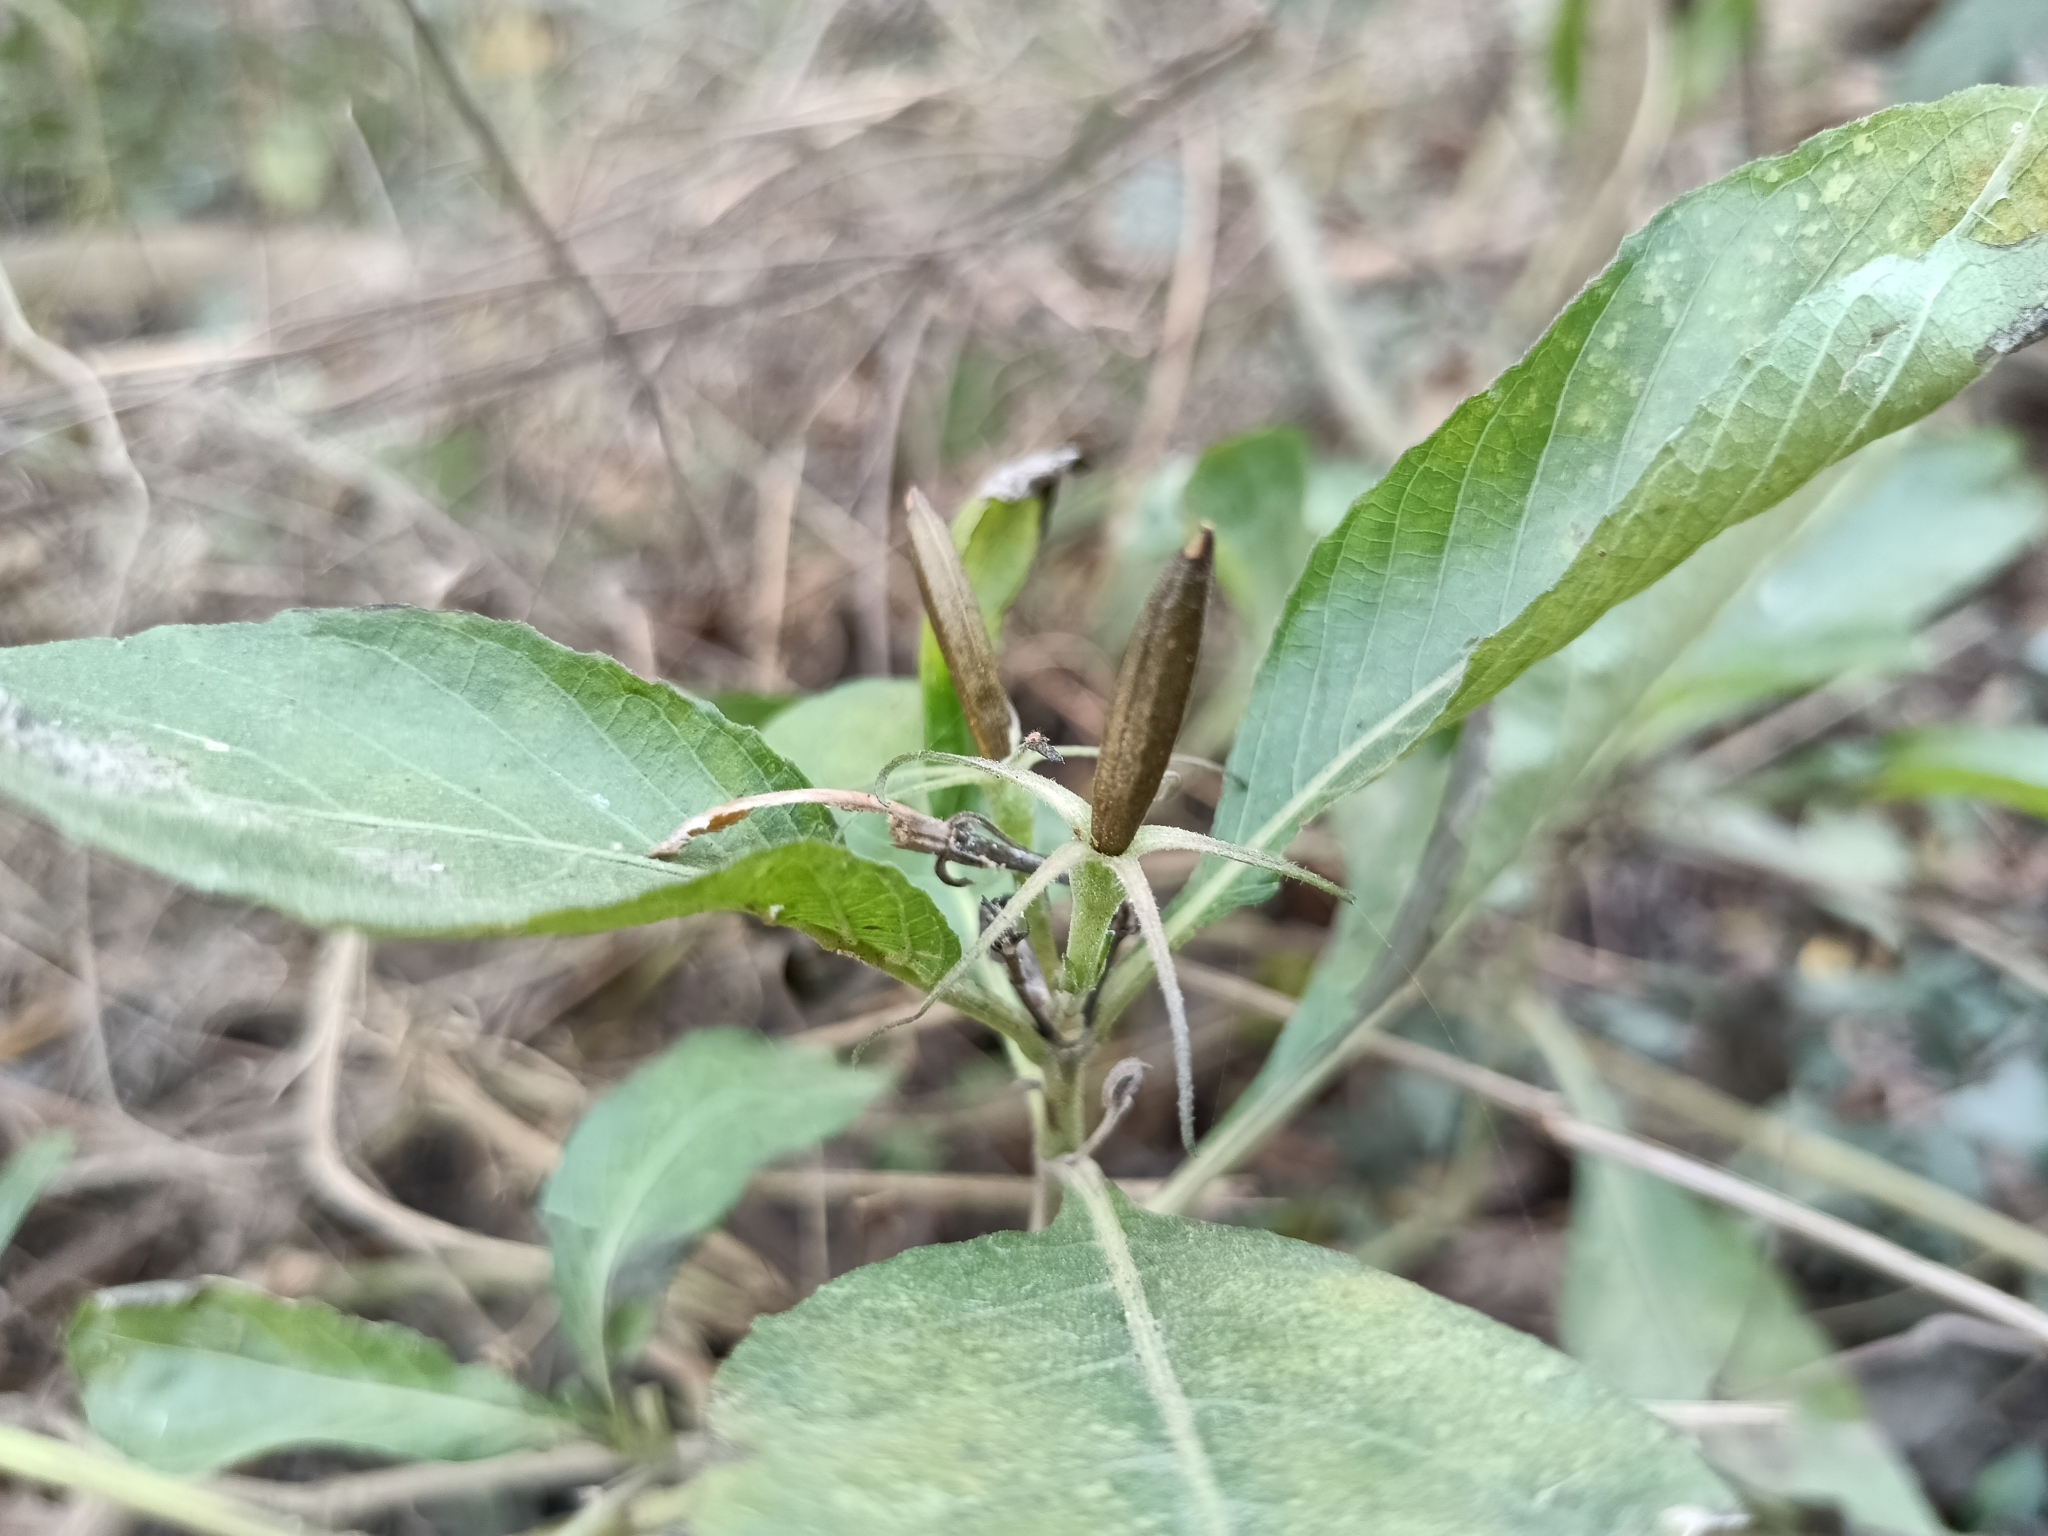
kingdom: Plantae
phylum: Tracheophyta
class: Magnoliopsida
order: Lamiales
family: Acanthaceae
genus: Ruellia
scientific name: Ruellia tuberosa
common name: Devil's bit
